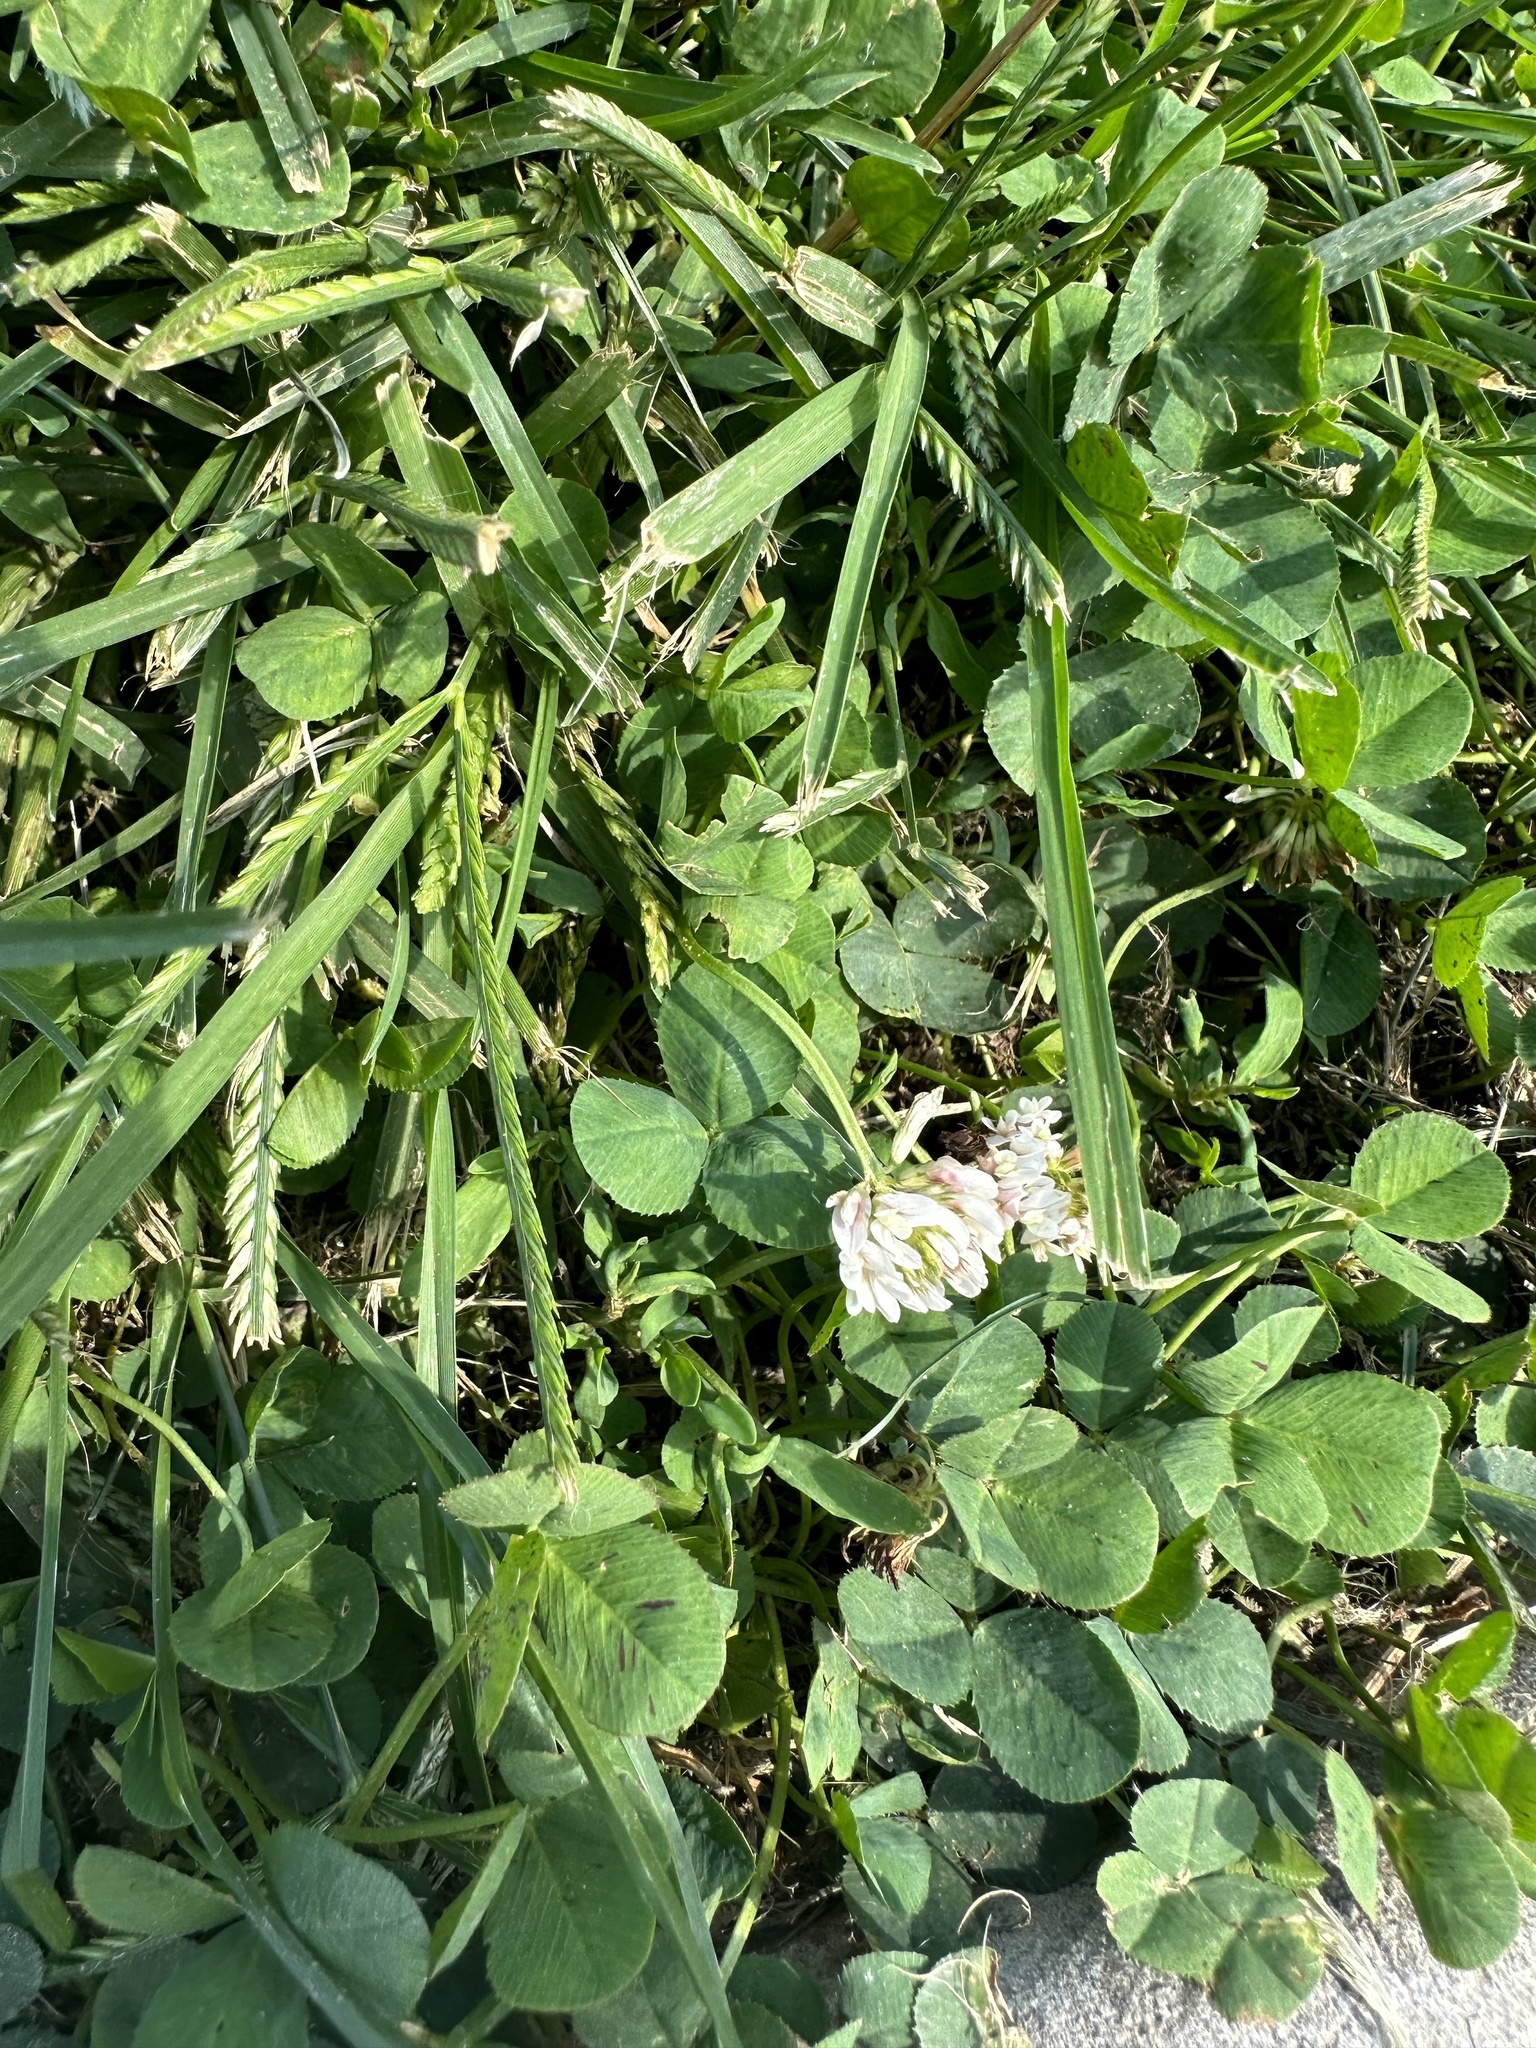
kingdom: Plantae
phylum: Tracheophyta
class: Magnoliopsida
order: Fabales
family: Fabaceae
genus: Trifolium
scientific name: Trifolium repens
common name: White clover
